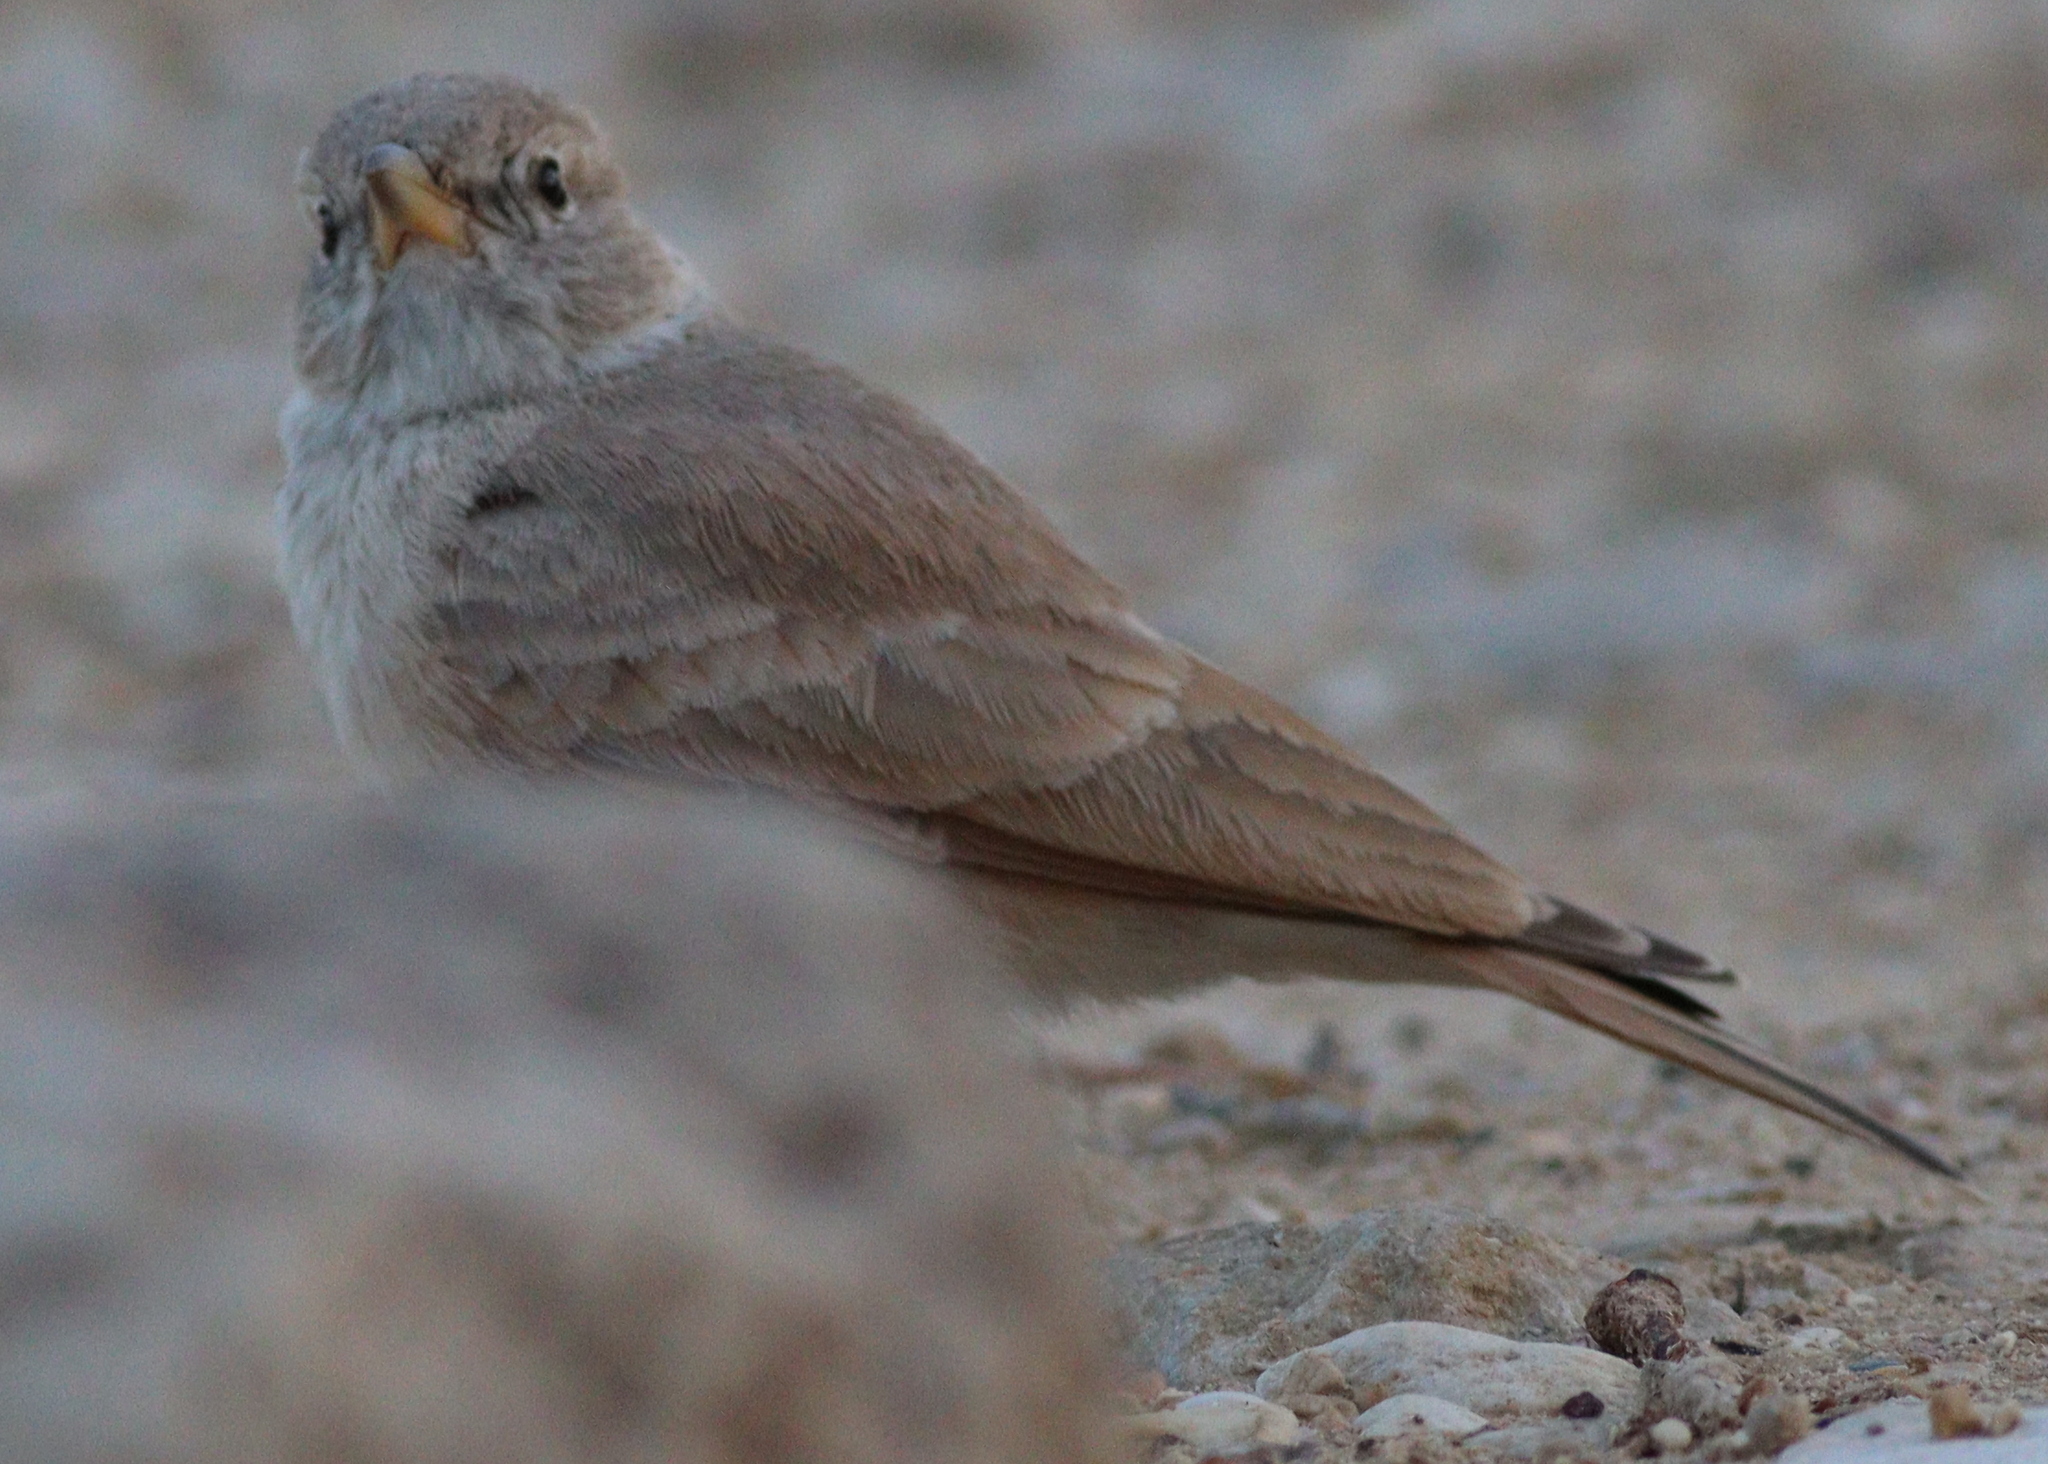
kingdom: Animalia
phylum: Chordata
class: Aves
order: Passeriformes
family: Alaudidae
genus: Ammomanes
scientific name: Ammomanes deserti
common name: Desert lark
